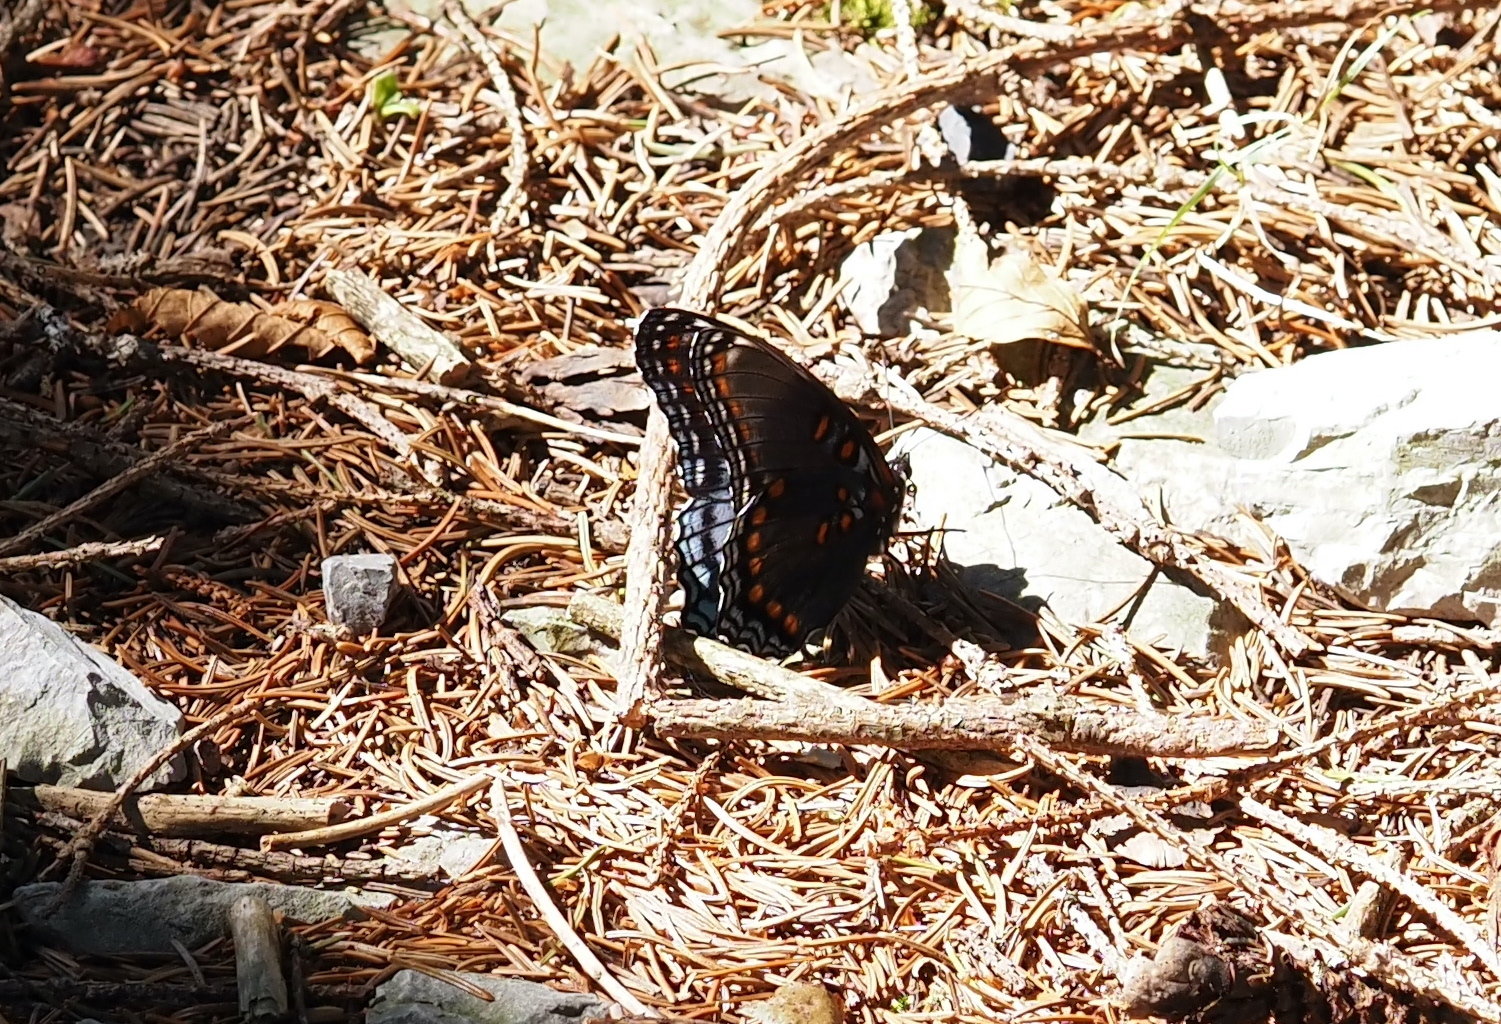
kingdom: Animalia
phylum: Arthropoda
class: Insecta
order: Lepidoptera
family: Nymphalidae
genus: Limenitis
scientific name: Limenitis arthemis
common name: Red-spotted admiral
